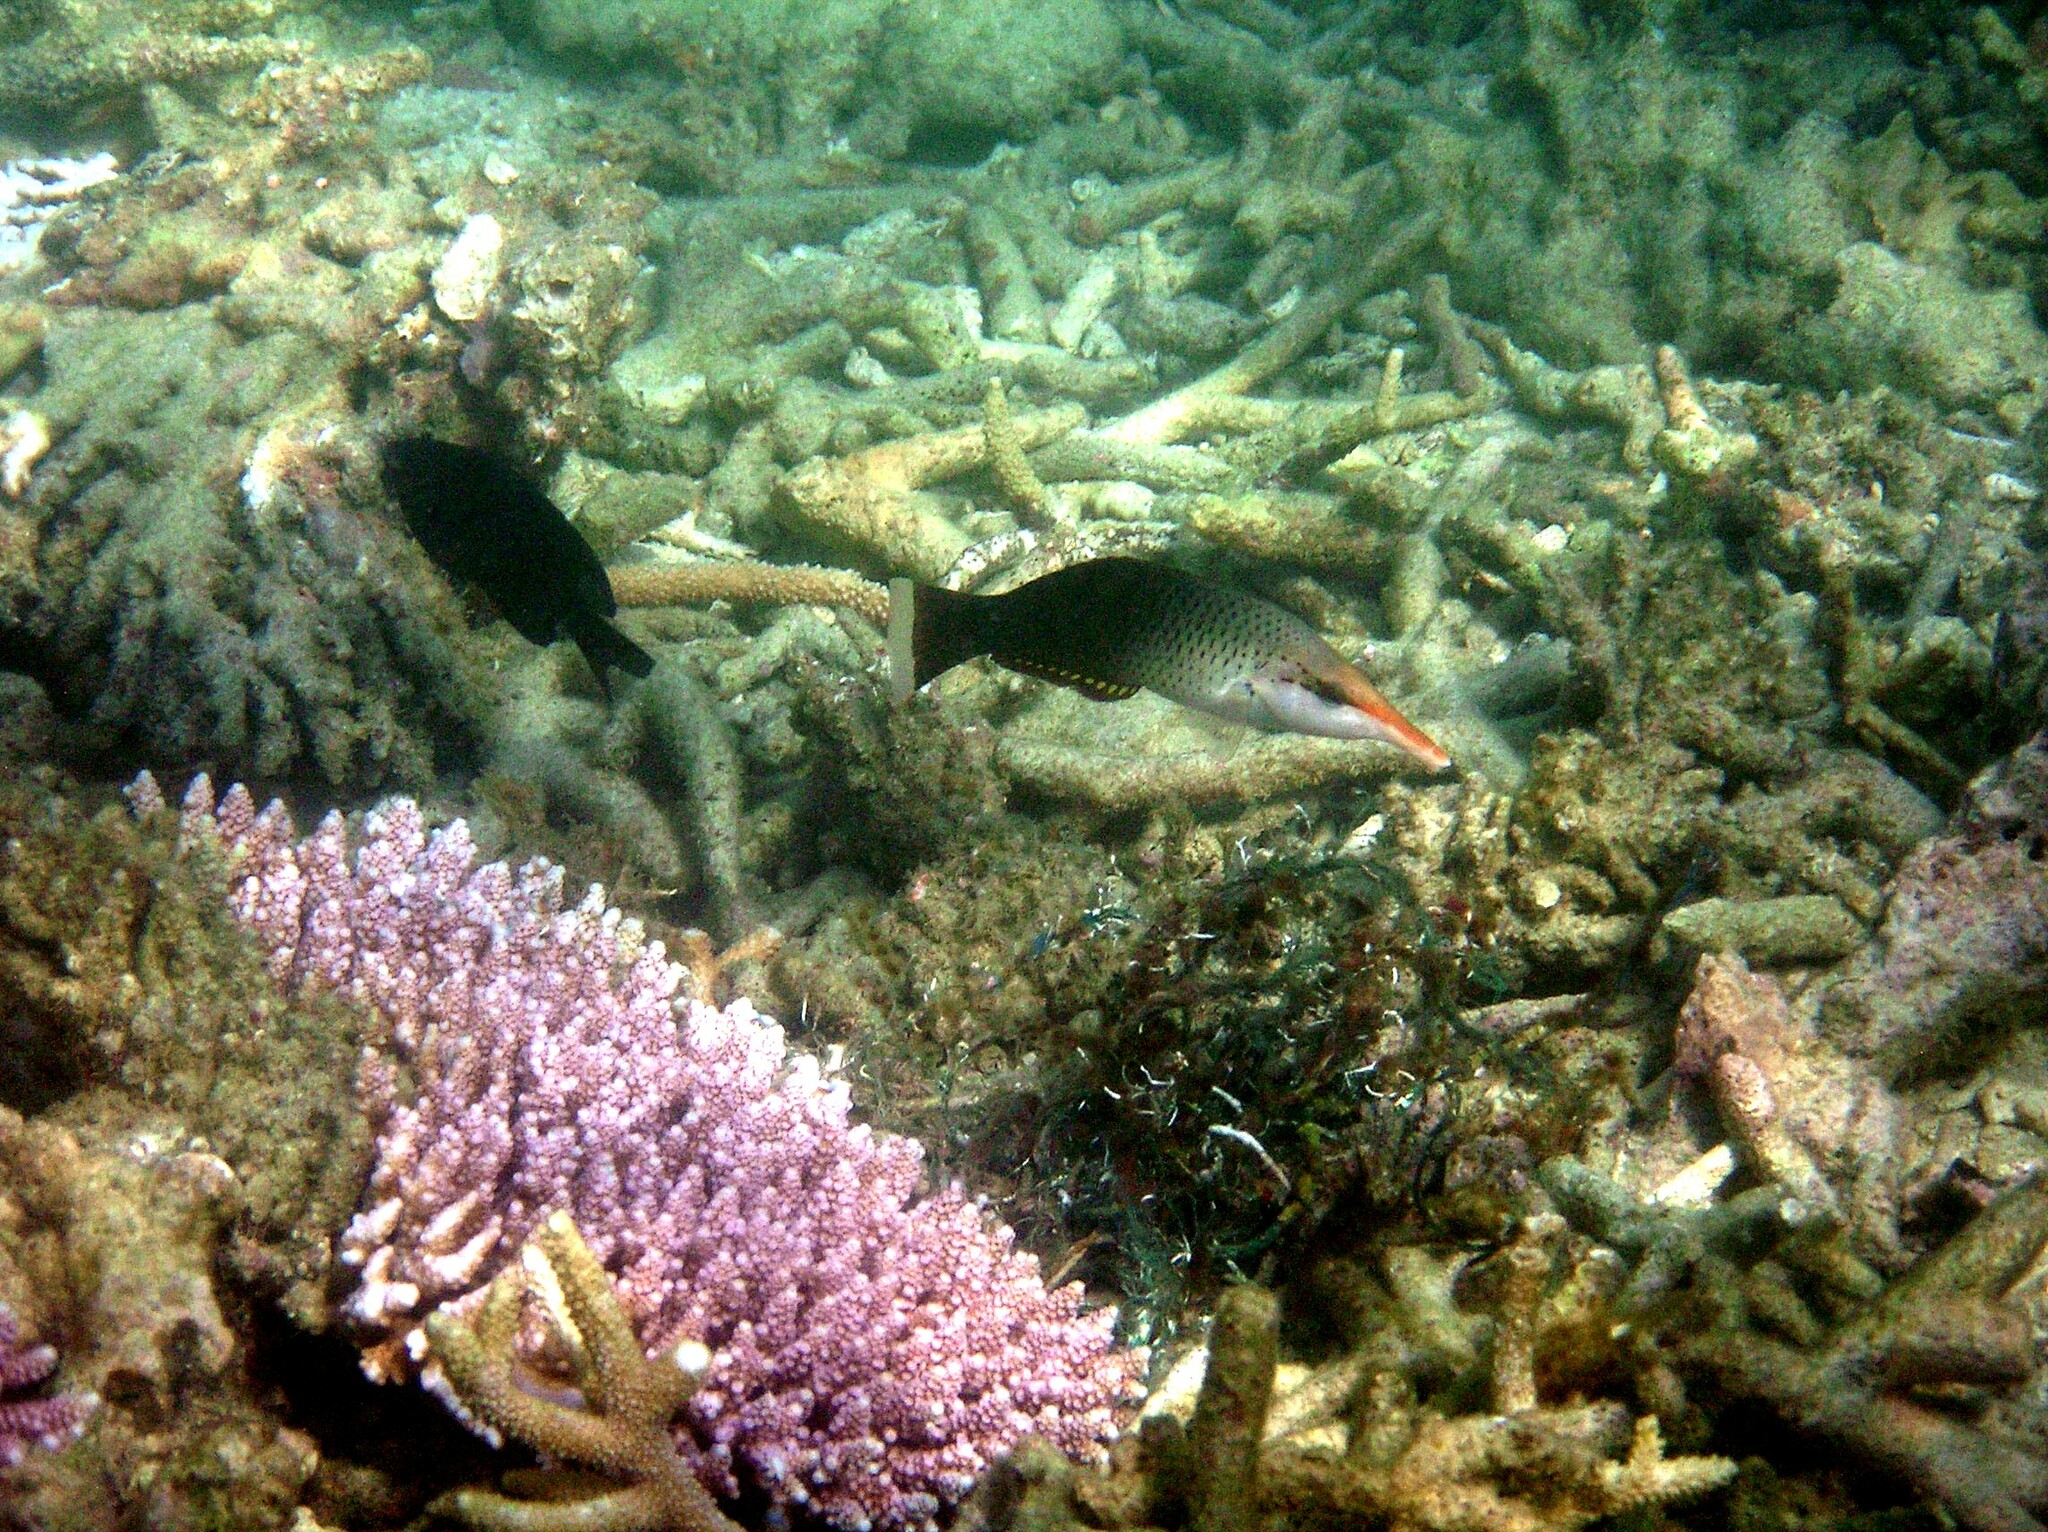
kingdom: Animalia
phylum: Chordata
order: Perciformes
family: Labridae
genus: Gomphosus
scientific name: Gomphosus varius
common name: Bird wrasse
